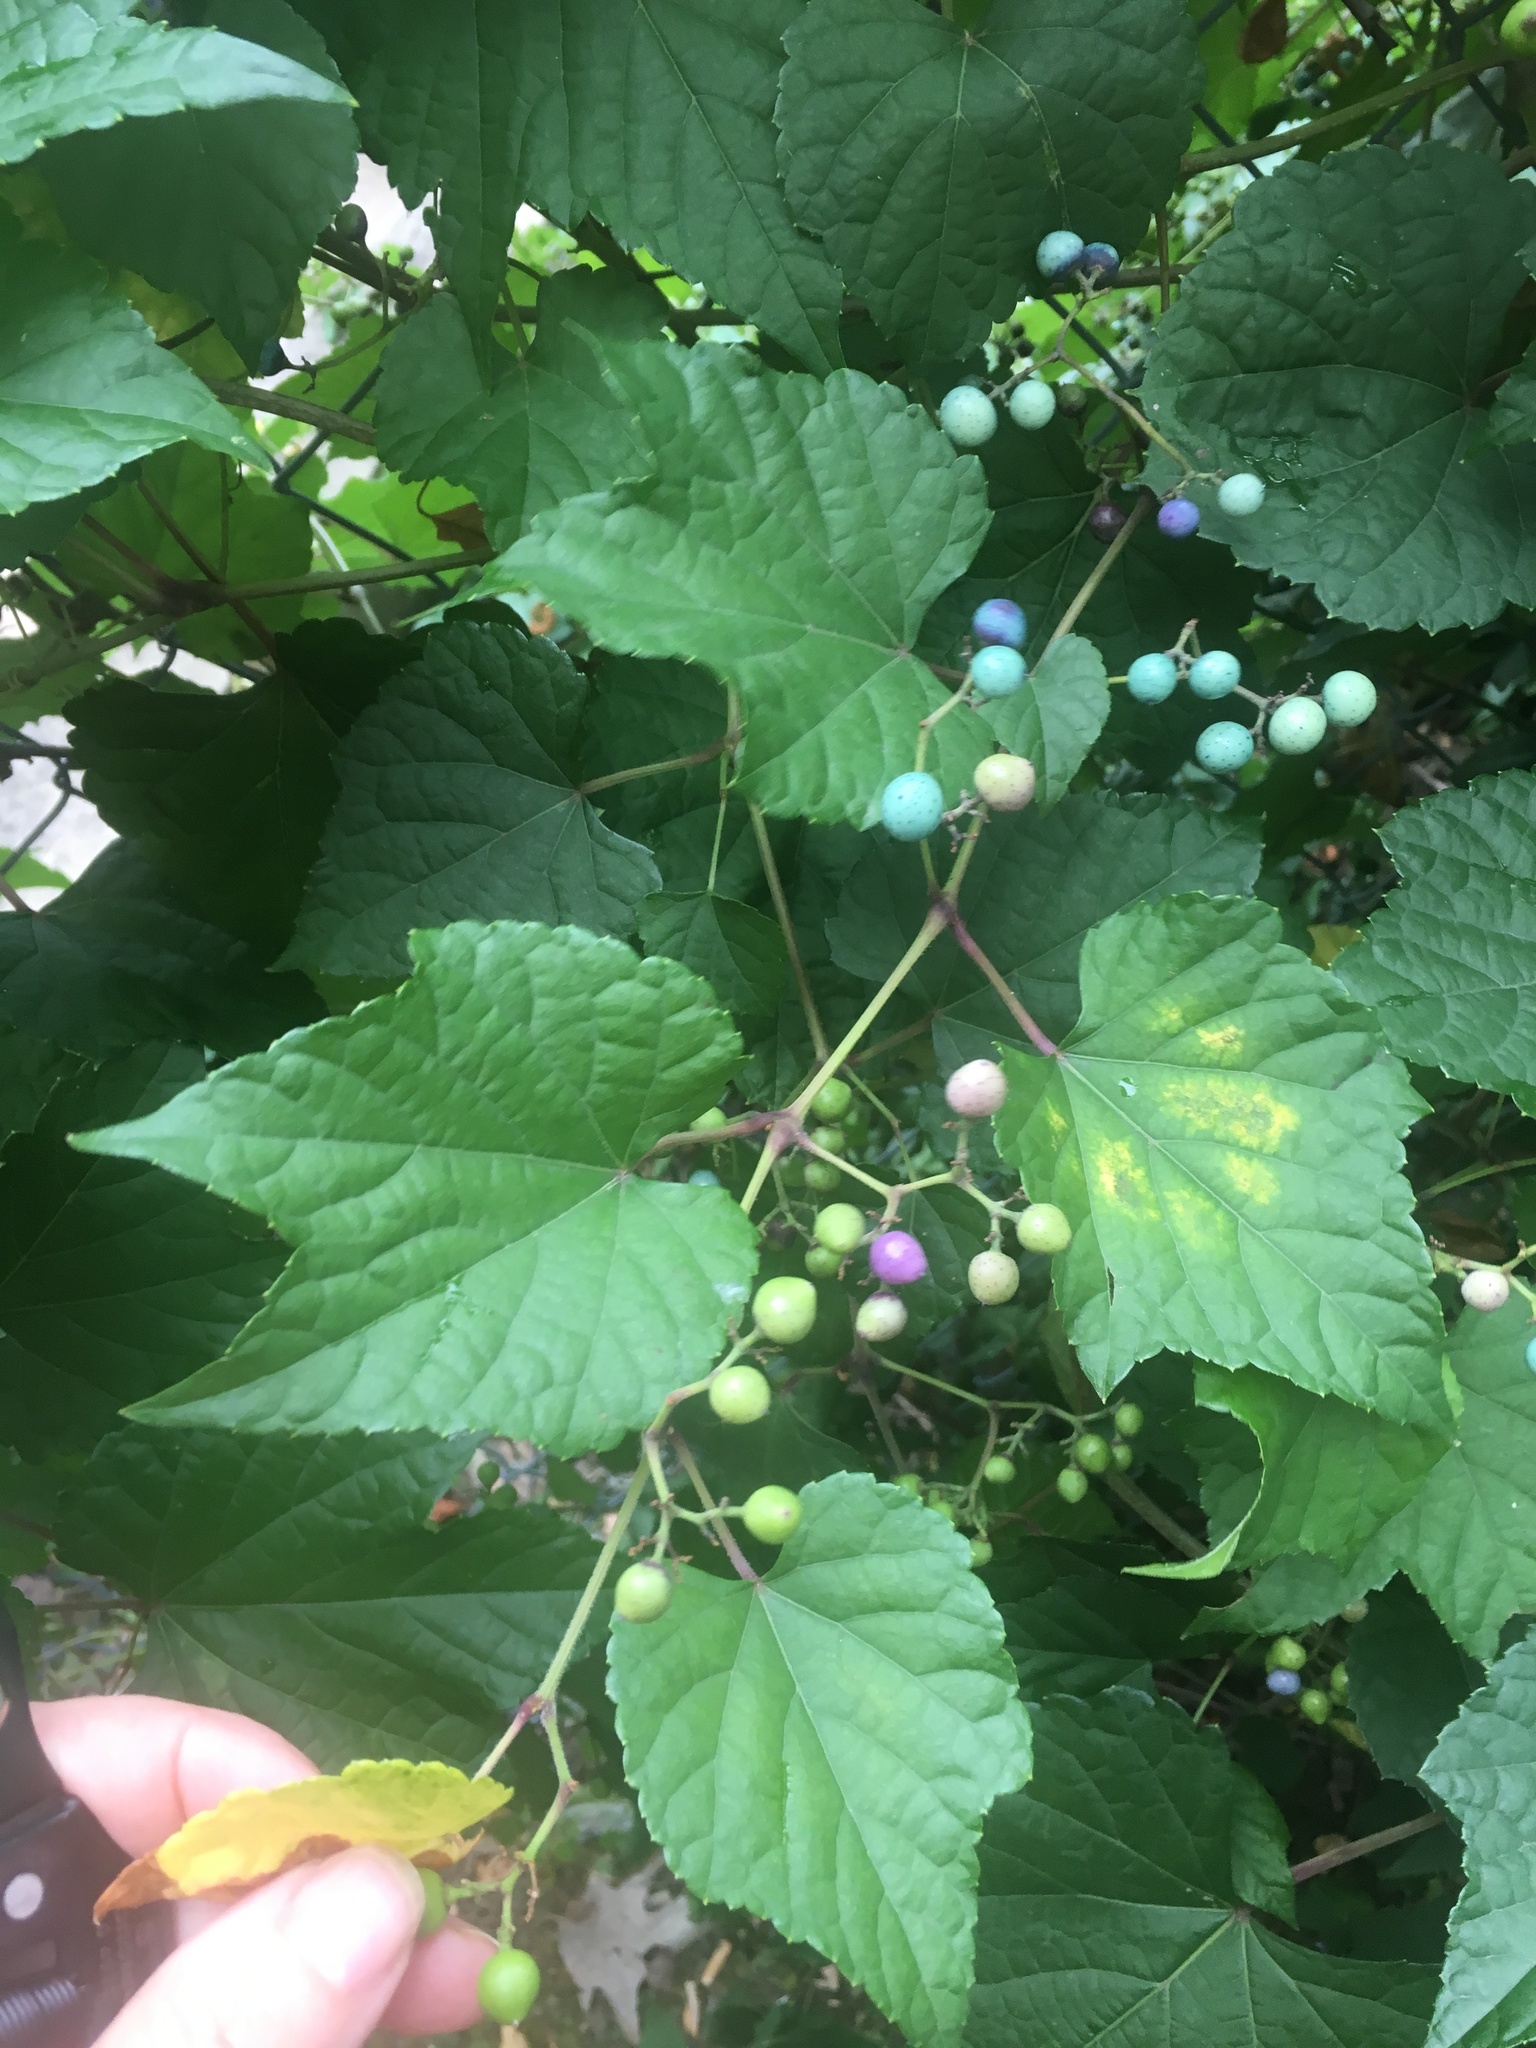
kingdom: Plantae
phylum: Tracheophyta
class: Magnoliopsida
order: Vitales
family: Vitaceae
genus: Ampelopsis
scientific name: Ampelopsis glandulosa
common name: Amur peppervine
